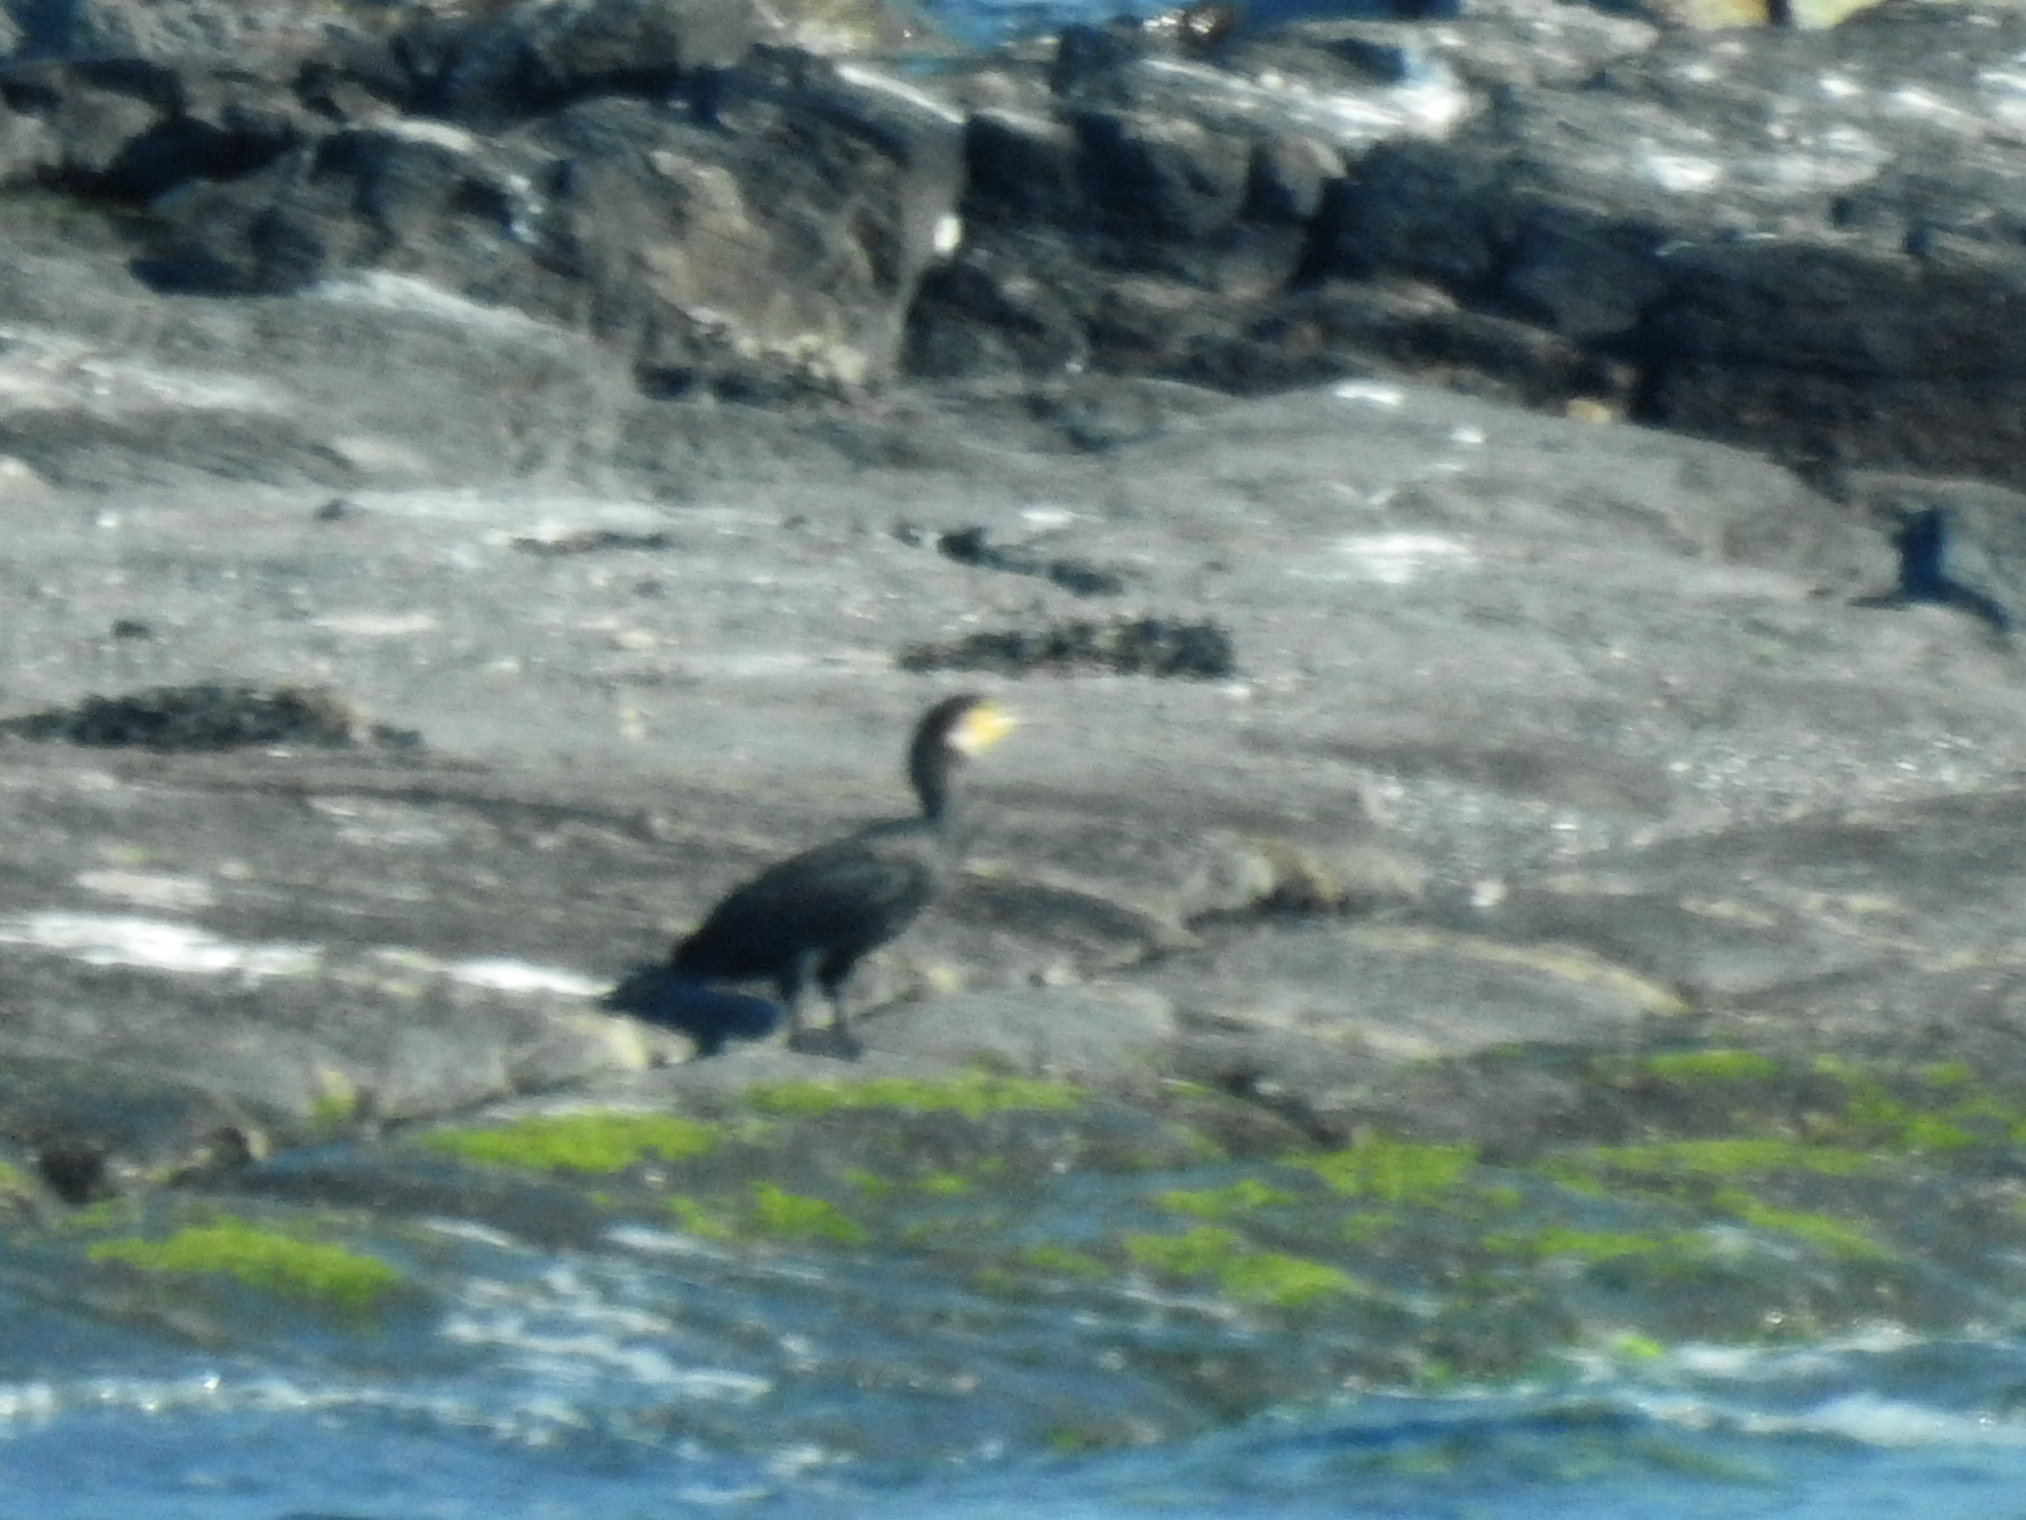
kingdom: Animalia
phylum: Chordata
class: Aves
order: Suliformes
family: Phalacrocoracidae
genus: Phalacrocorax
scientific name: Phalacrocorax carbo
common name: Great cormorant
